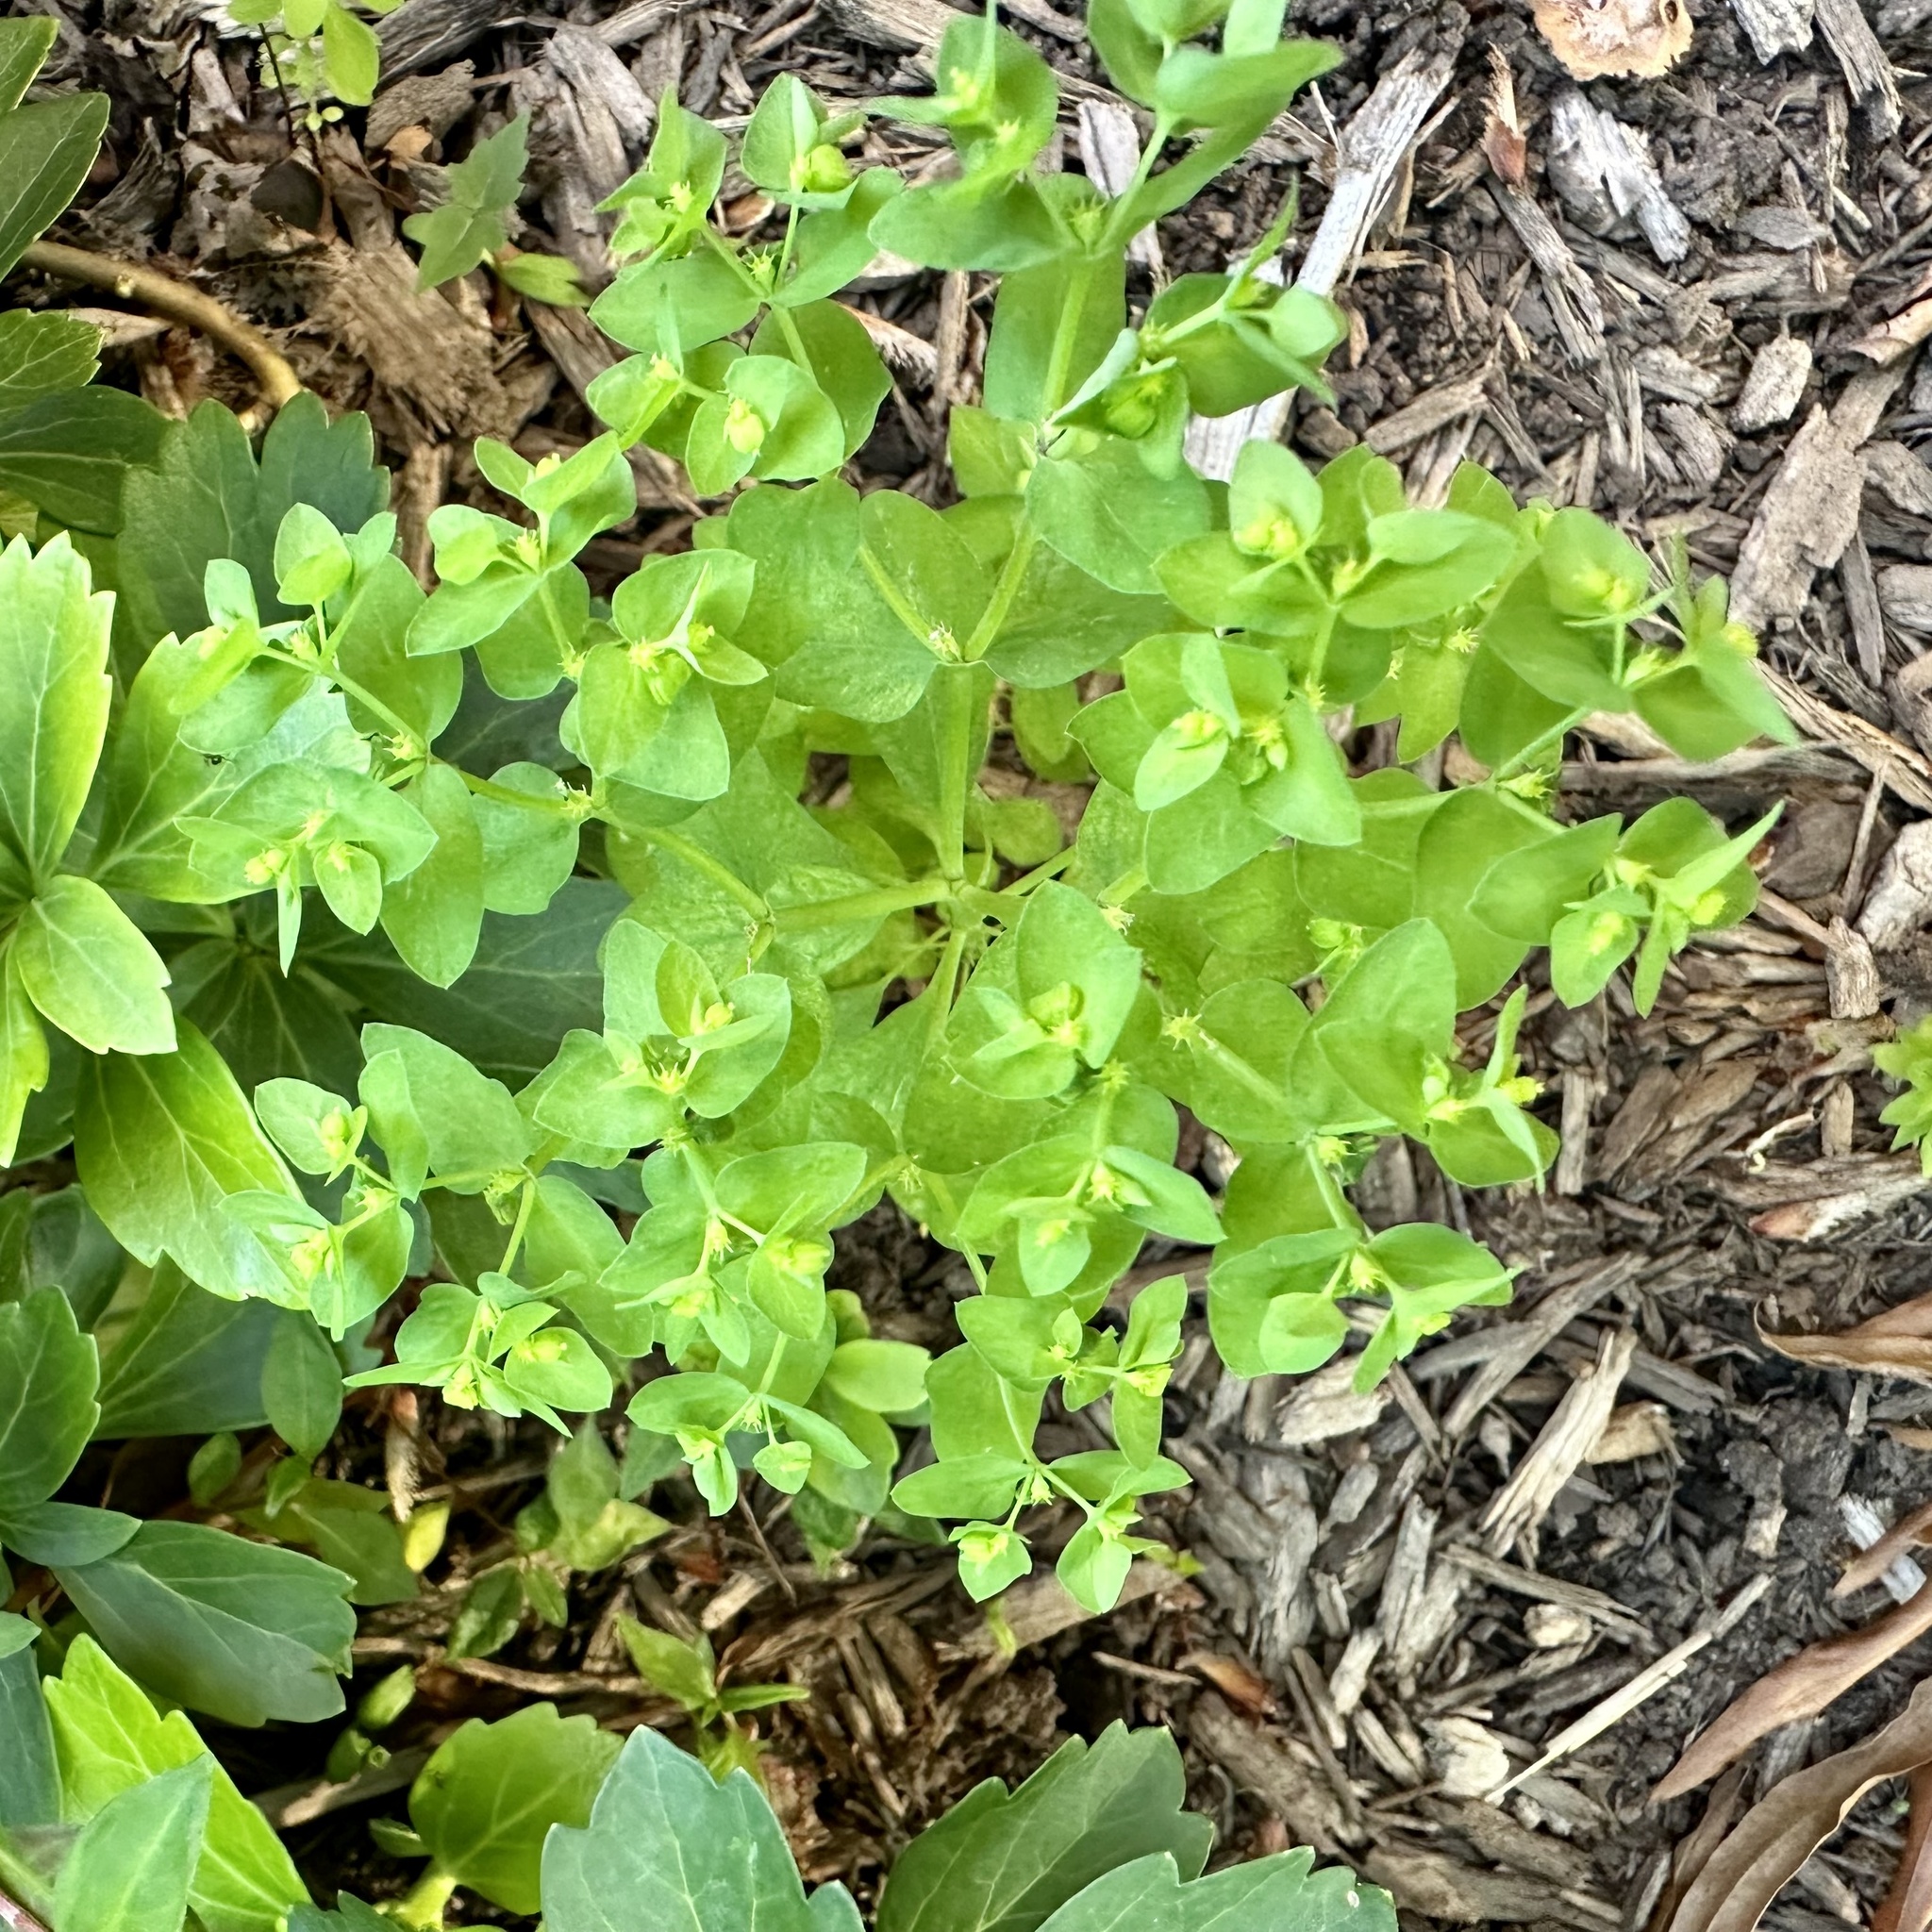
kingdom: Plantae
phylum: Tracheophyta
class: Magnoliopsida
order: Malpighiales
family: Euphorbiaceae
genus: Euphorbia
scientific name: Euphorbia peplus
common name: Petty spurge
